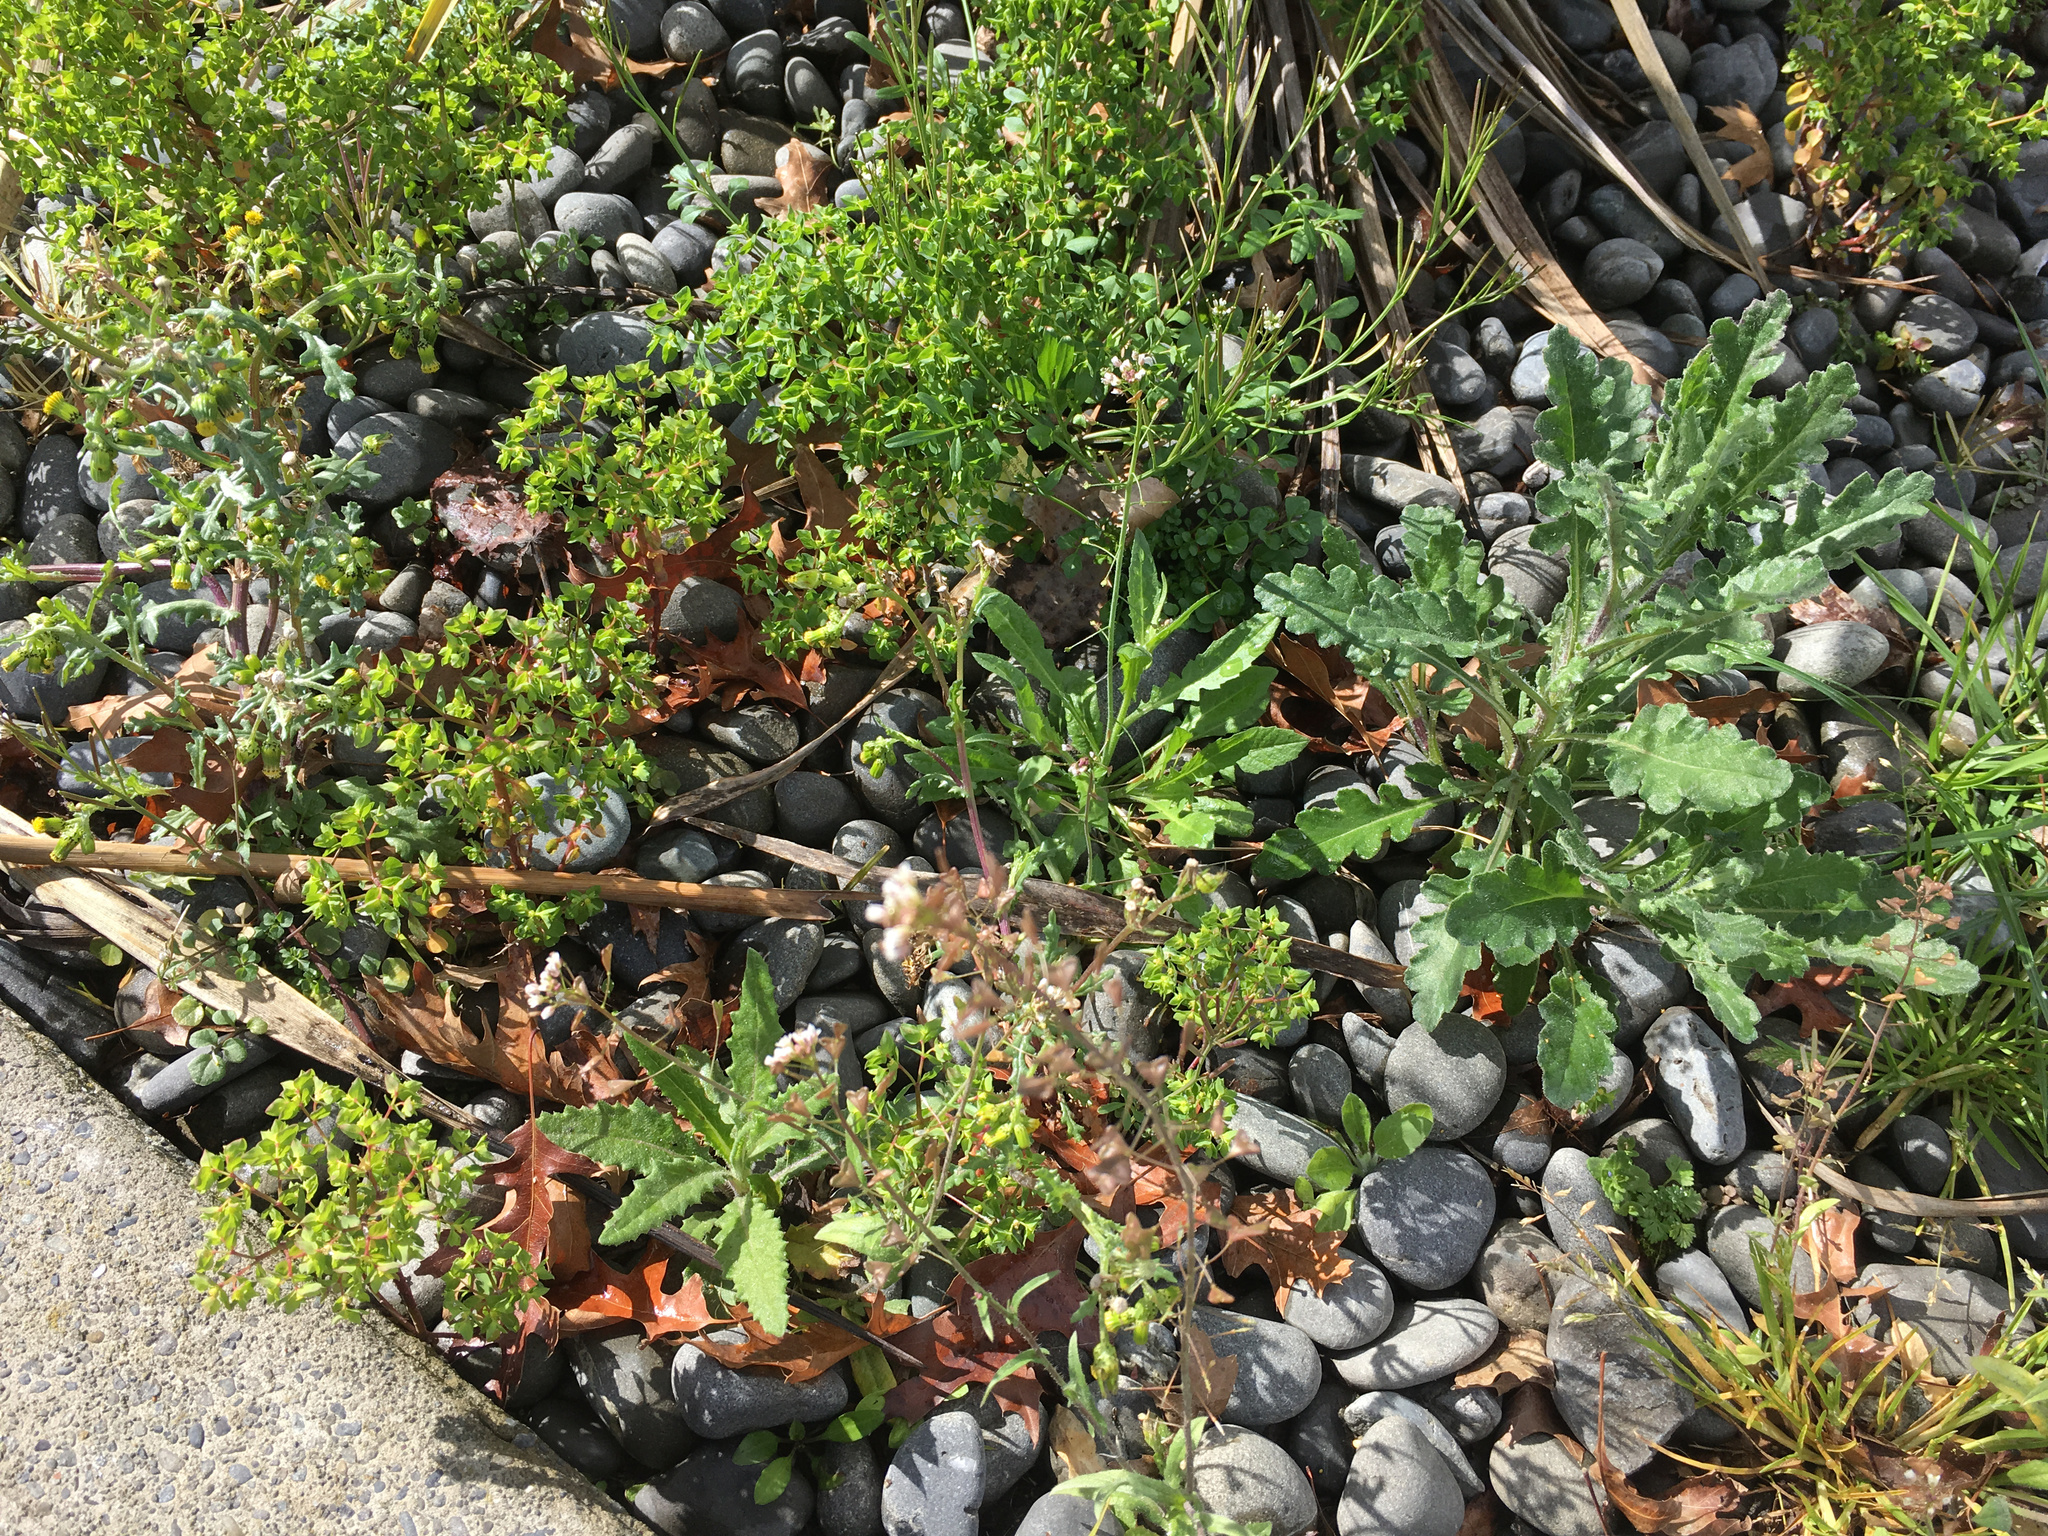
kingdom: Plantae
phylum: Tracheophyta
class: Magnoliopsida
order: Asterales
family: Asteraceae
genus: Senecio
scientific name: Senecio minimus
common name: Toothed fireweed
